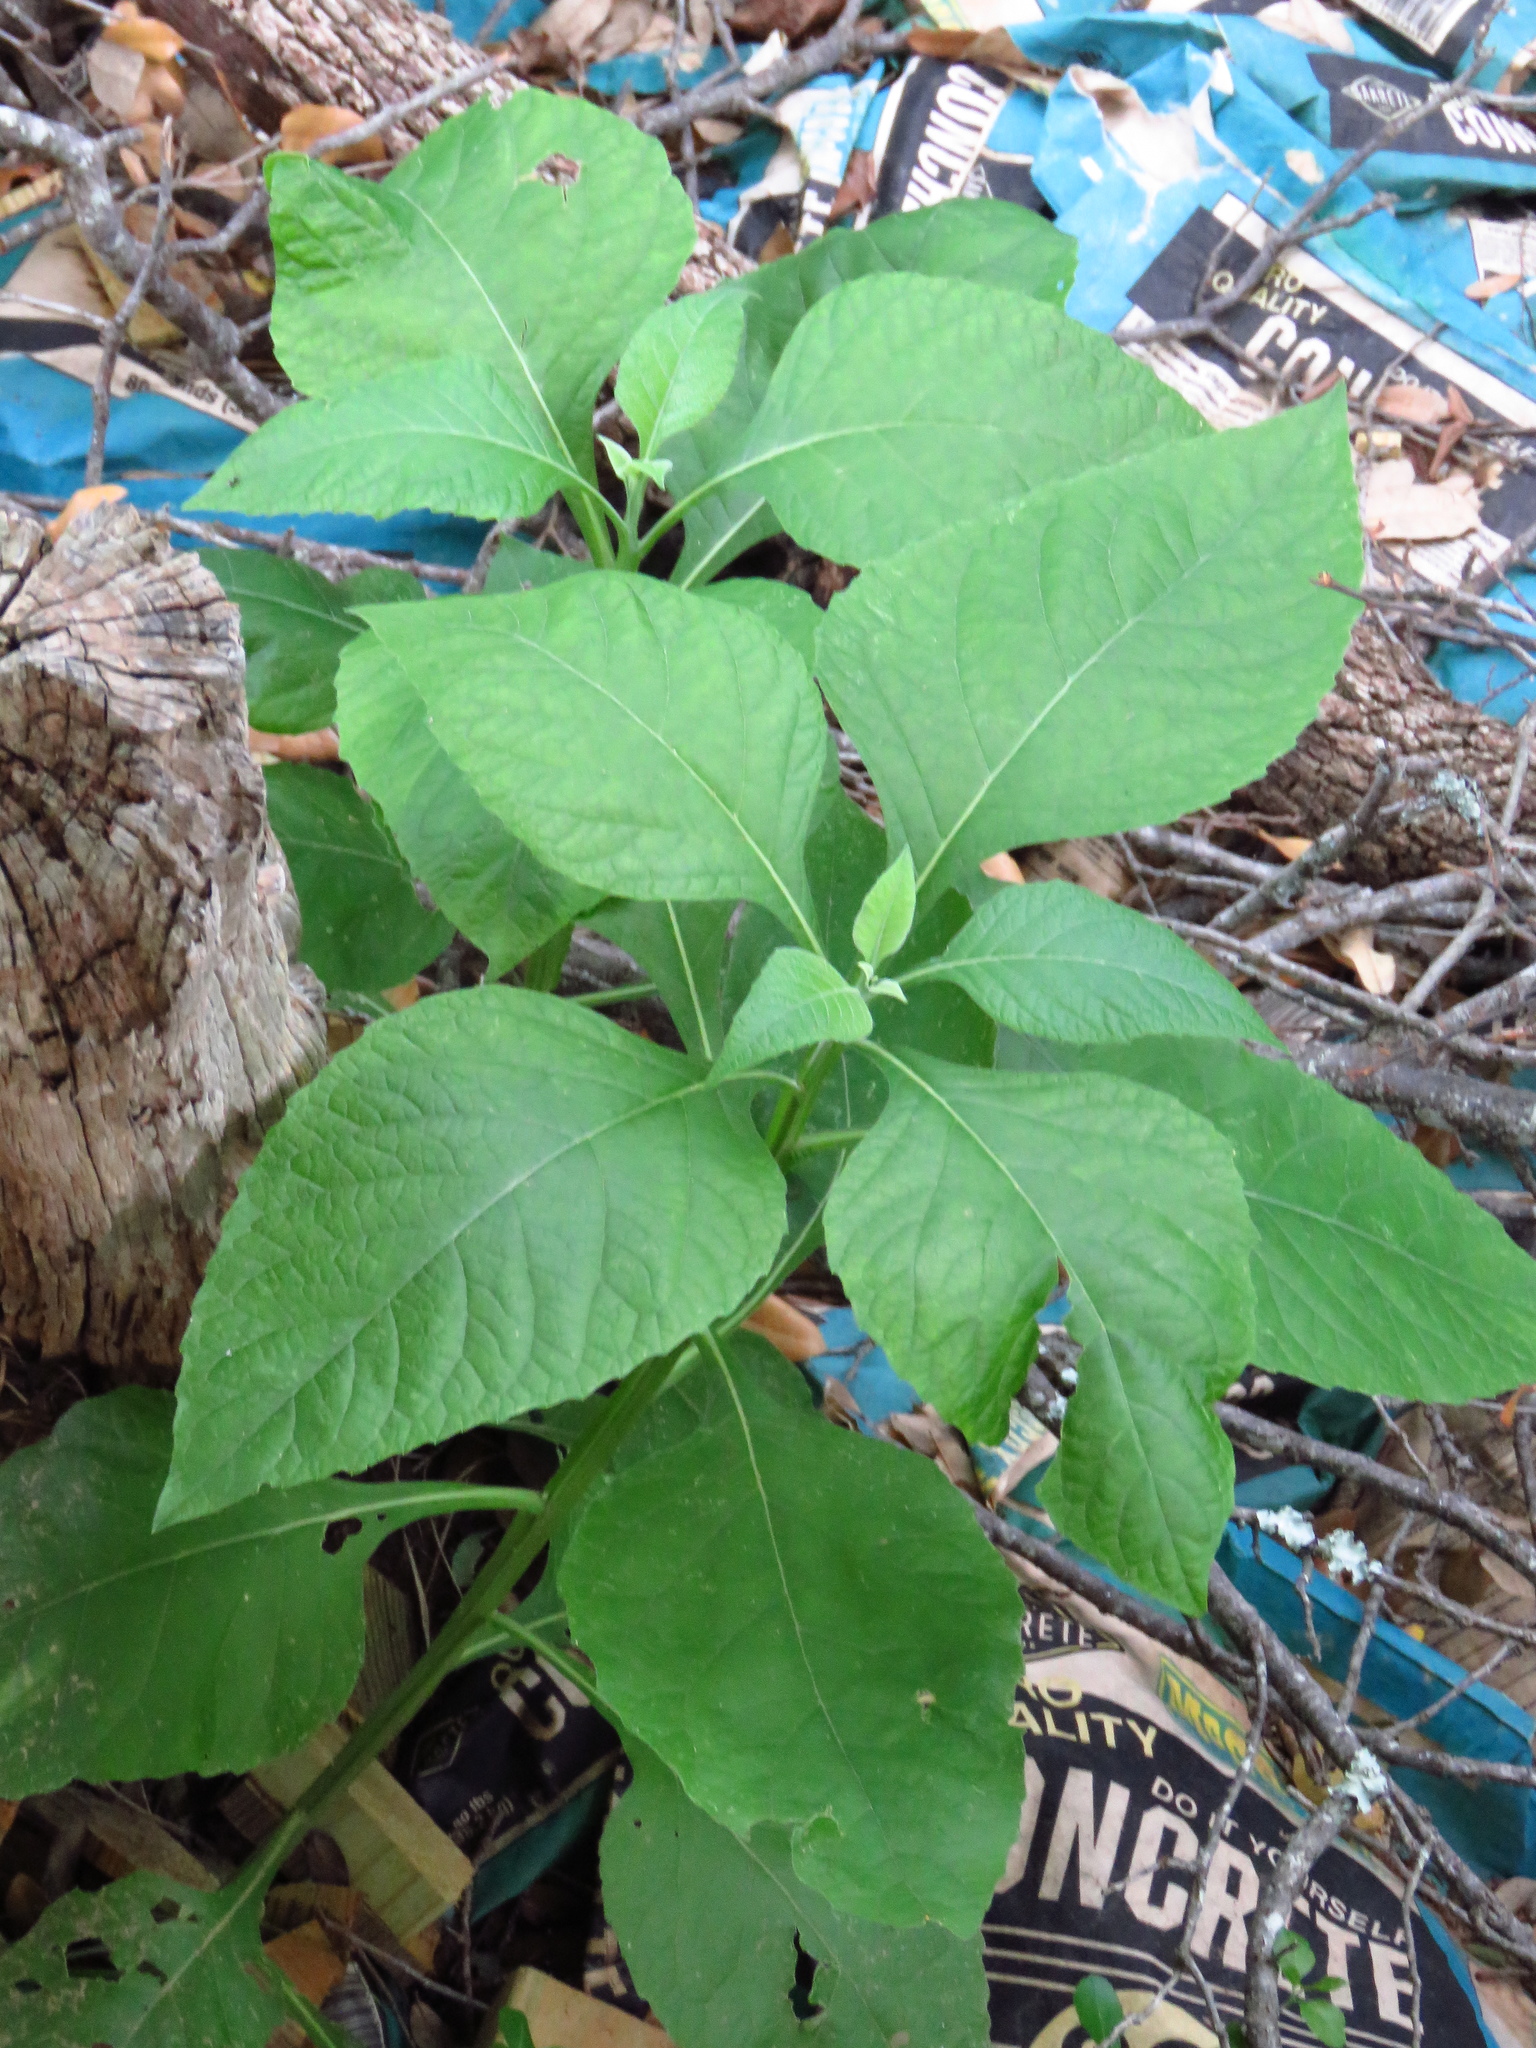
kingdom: Plantae
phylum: Tracheophyta
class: Magnoliopsida
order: Asterales
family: Asteraceae
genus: Verbesina
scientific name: Verbesina virginica
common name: Frostweed
